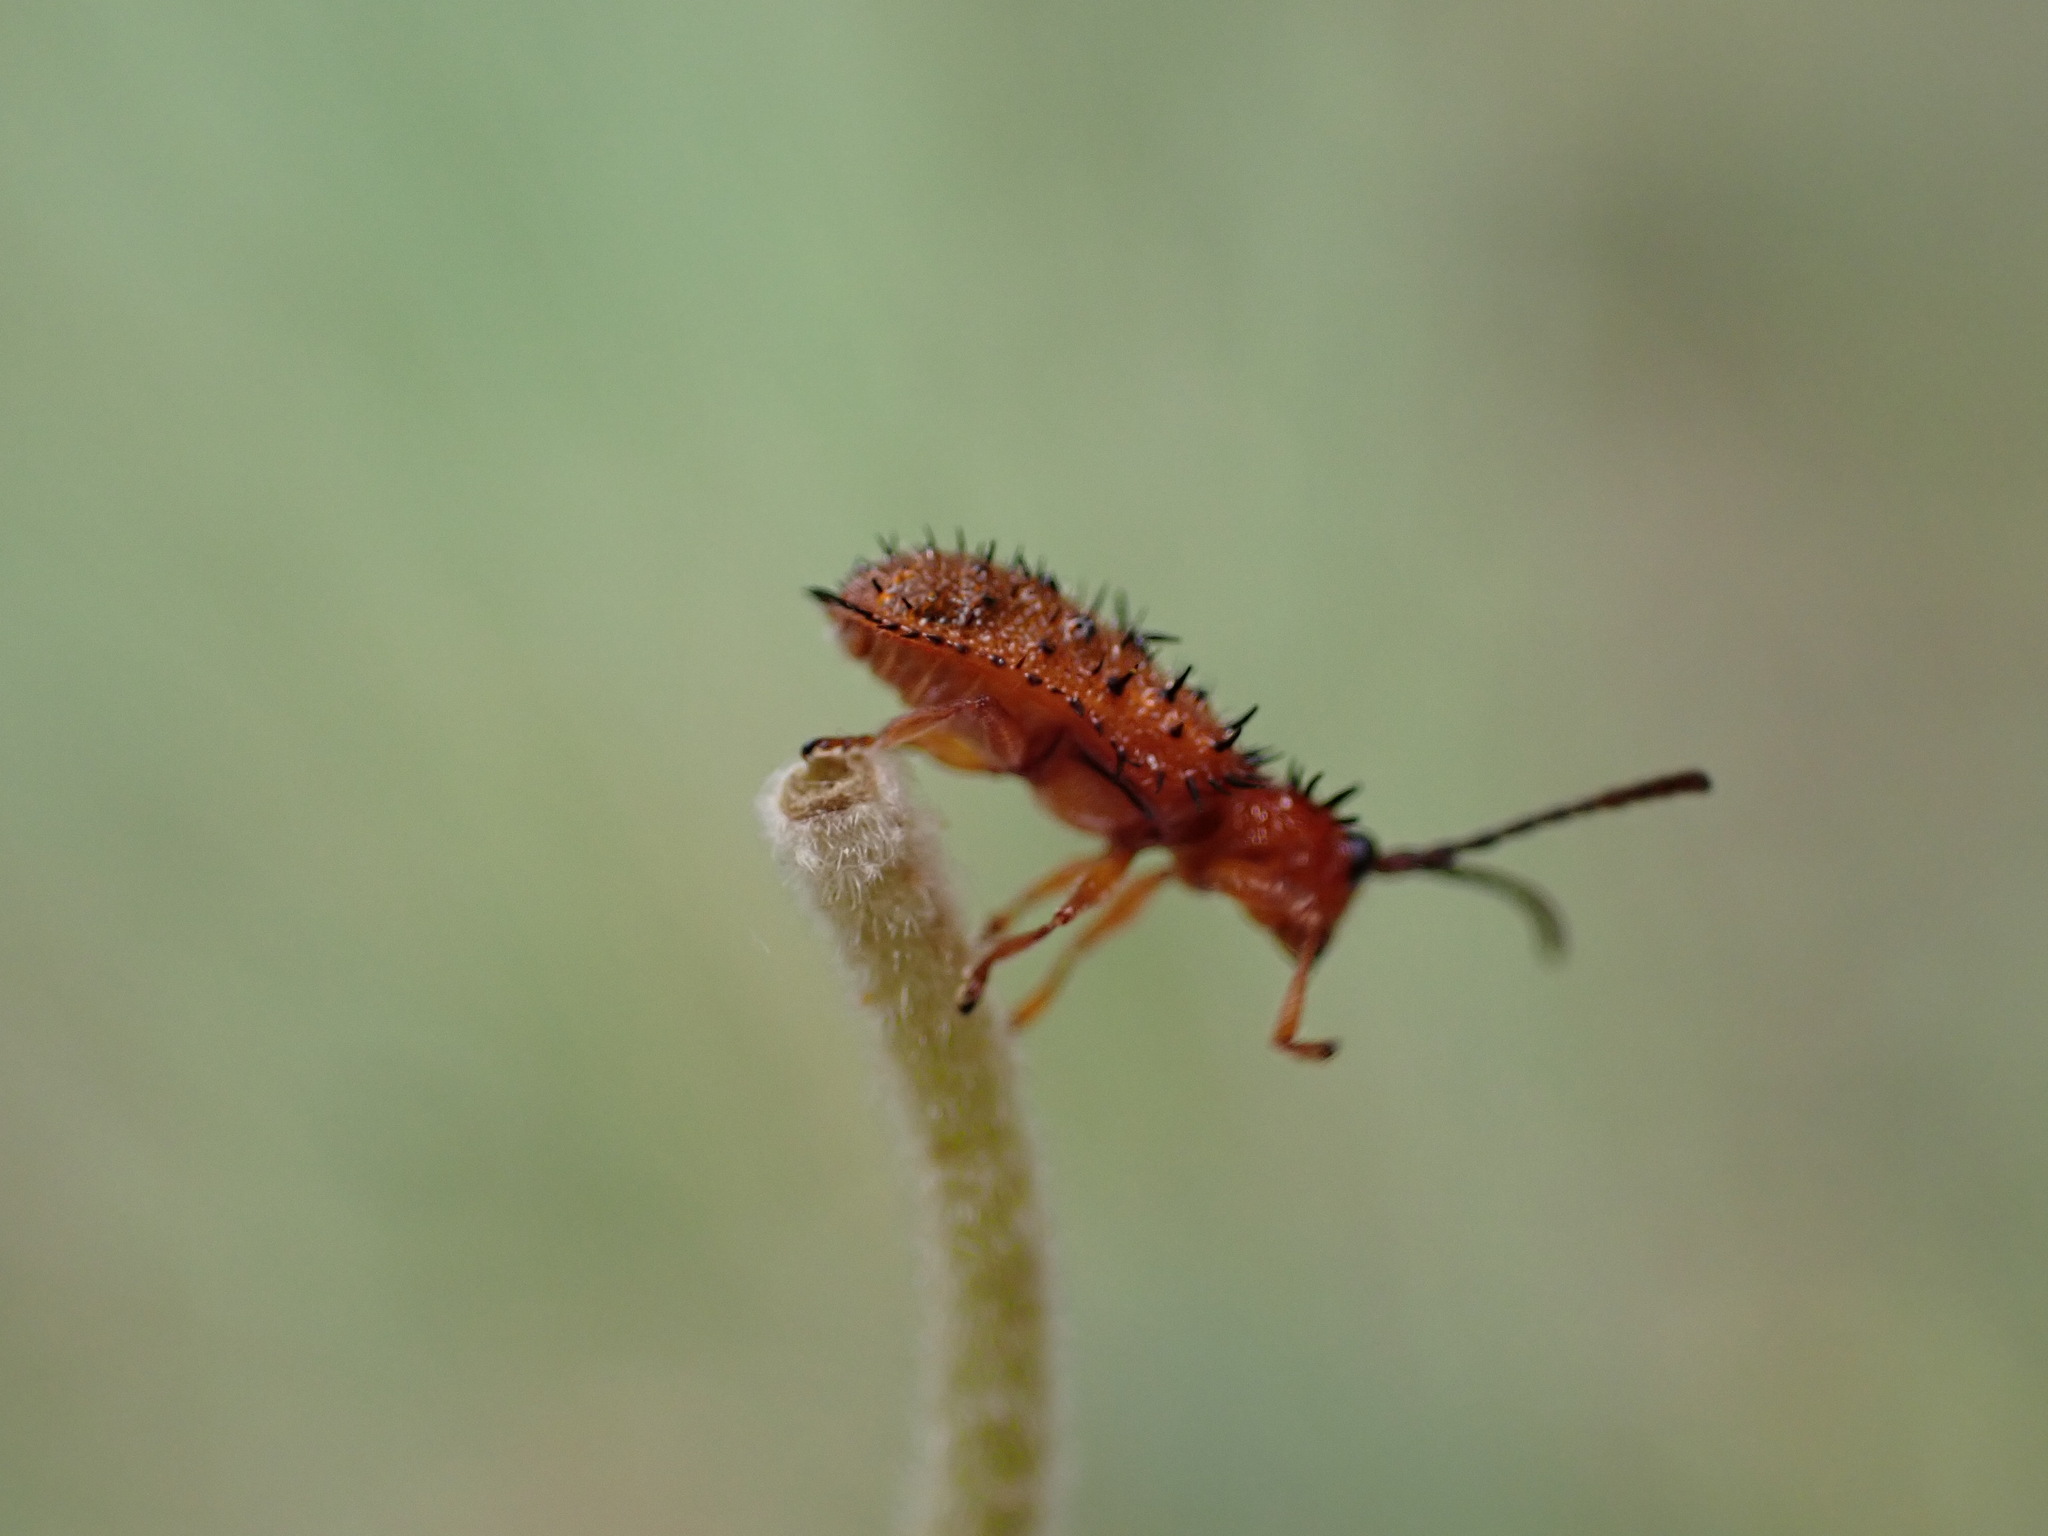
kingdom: Animalia
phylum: Arthropoda
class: Insecta
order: Coleoptera
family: Chrysomelidae
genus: Dicladispa
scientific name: Dicladispa testacea
